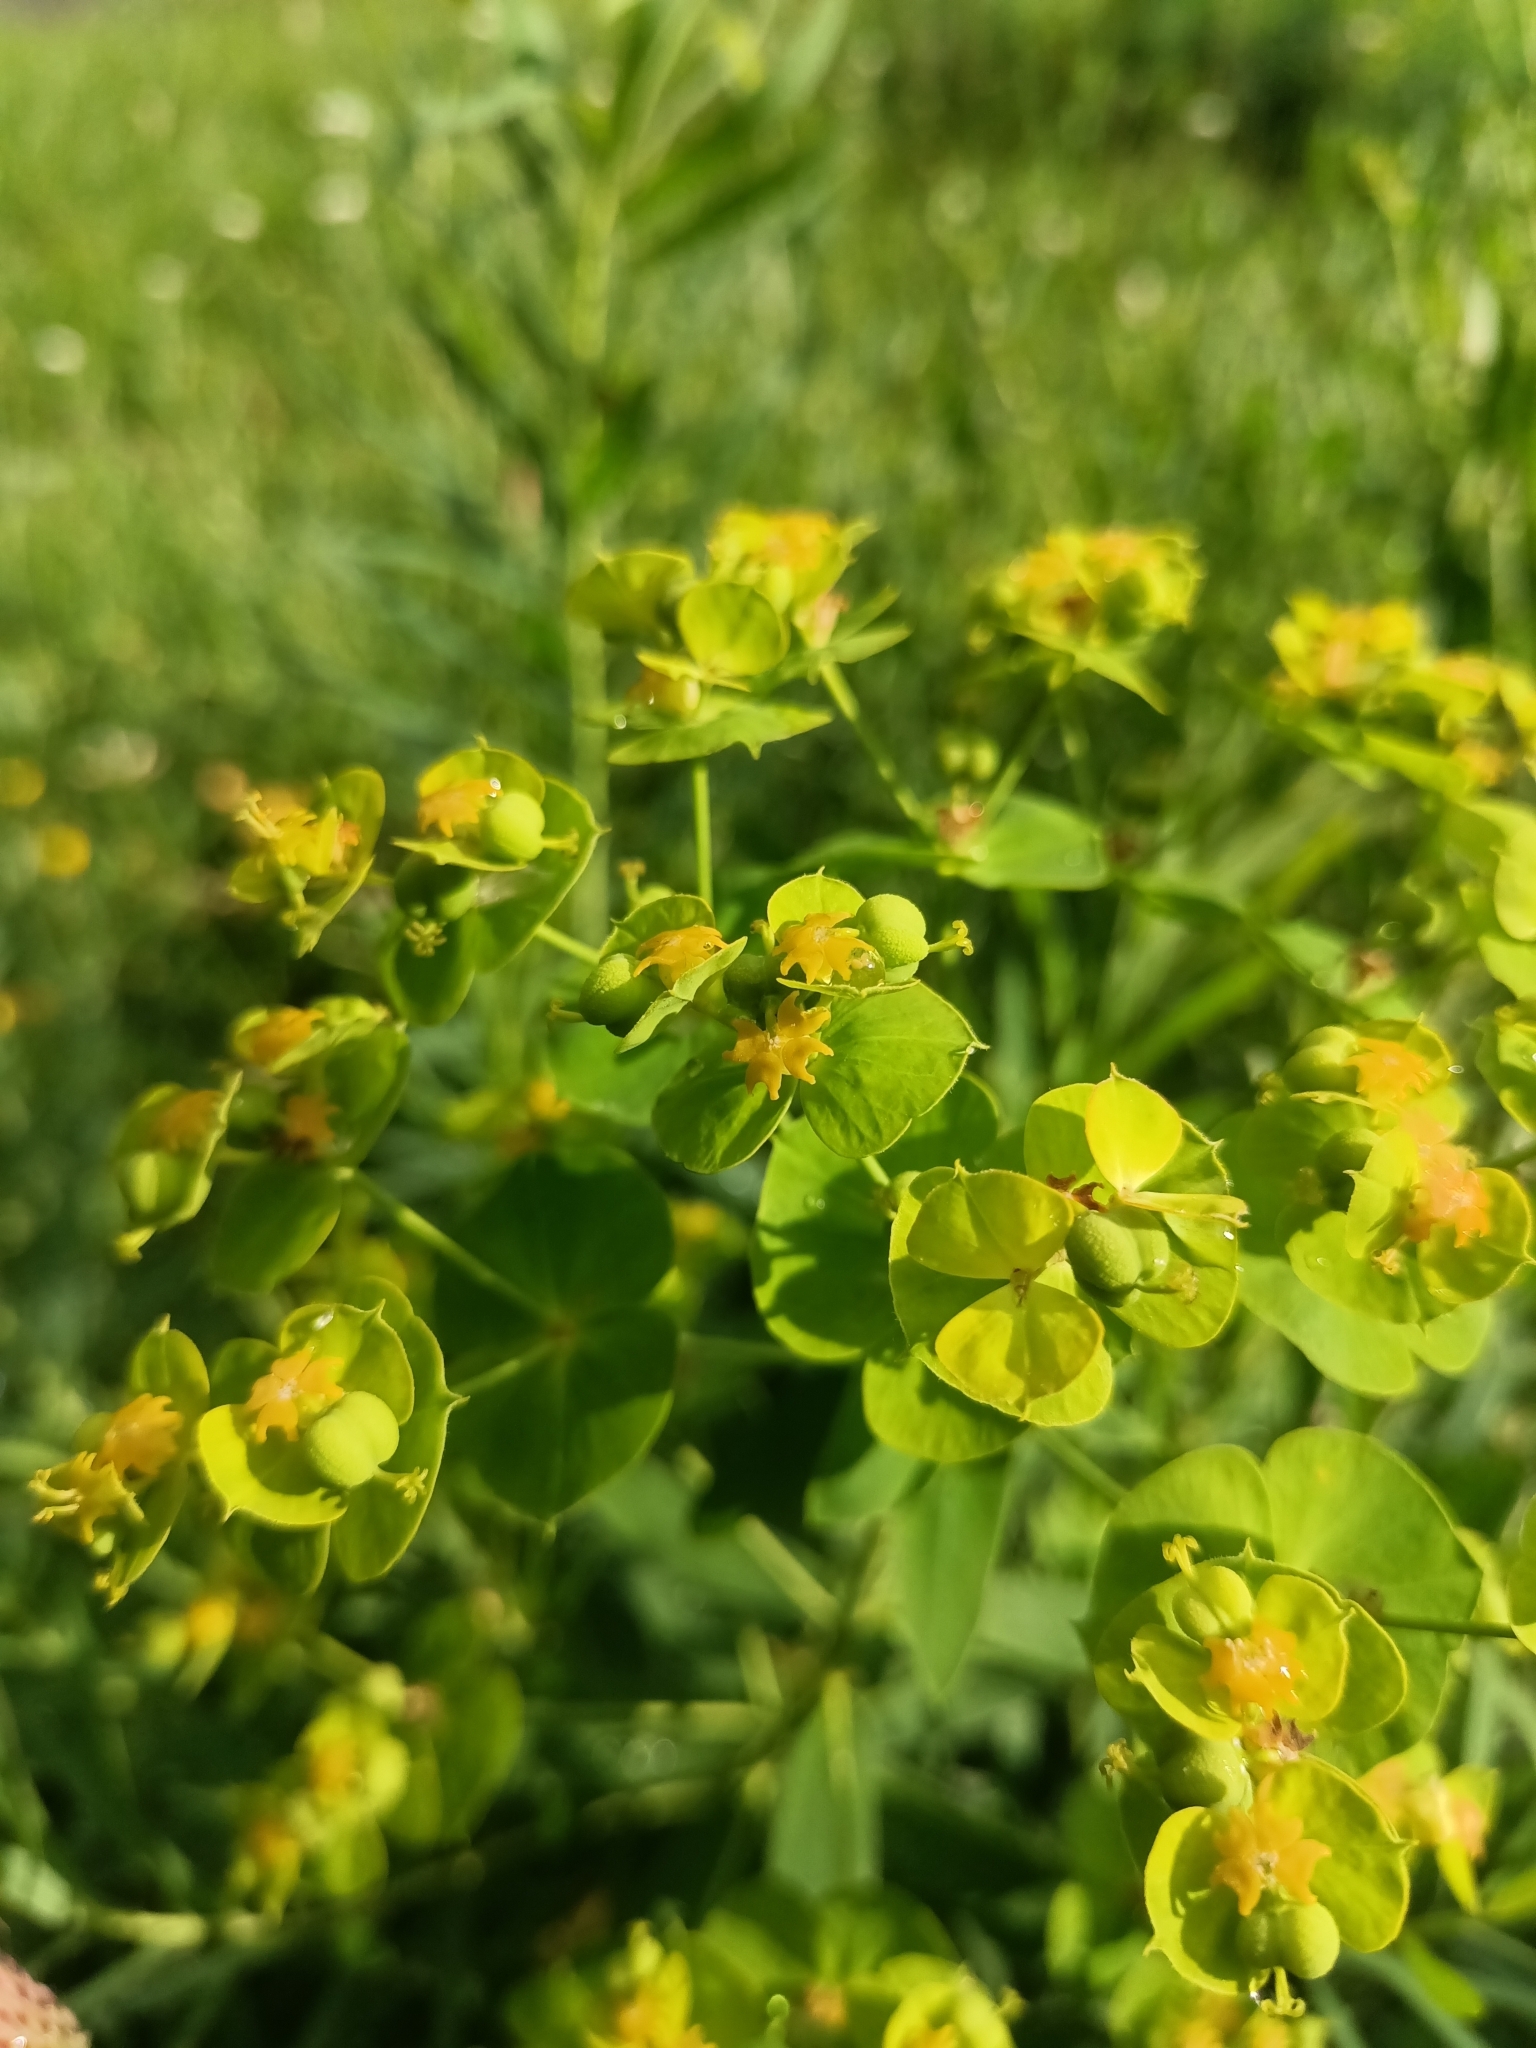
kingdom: Plantae
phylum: Tracheophyta
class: Magnoliopsida
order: Malpighiales
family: Euphorbiaceae
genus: Euphorbia
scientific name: Euphorbia virgata
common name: Leafy spurge
